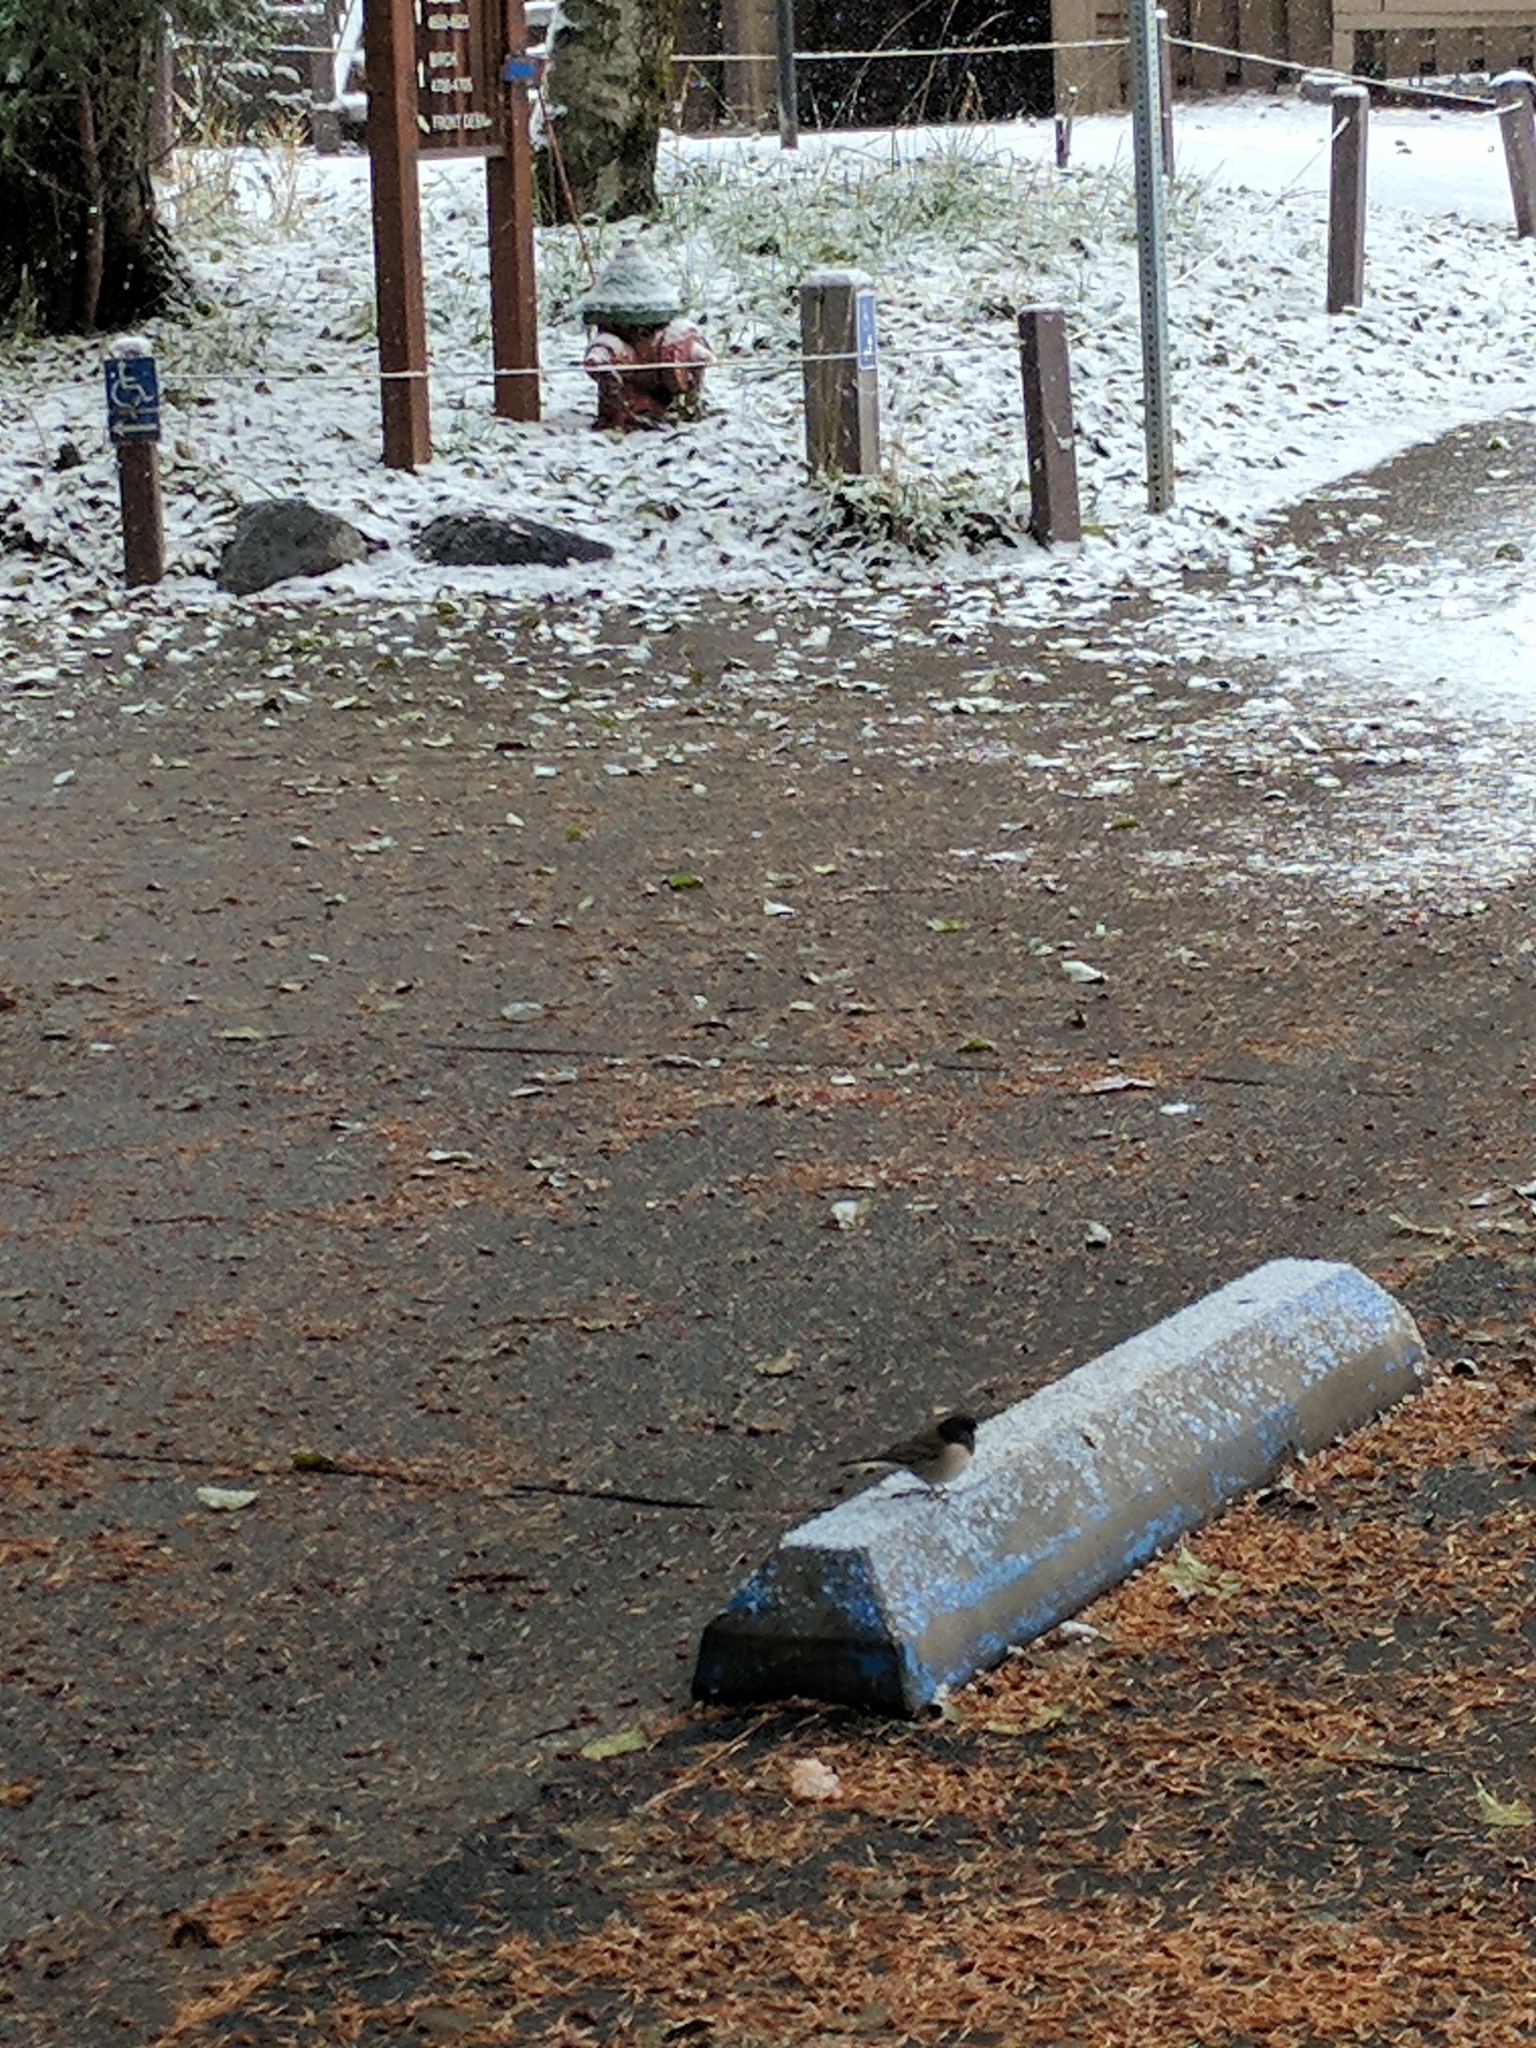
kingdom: Animalia
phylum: Chordata
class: Aves
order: Passeriformes
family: Passerellidae
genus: Junco
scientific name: Junco hyemalis
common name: Dark-eyed junco
